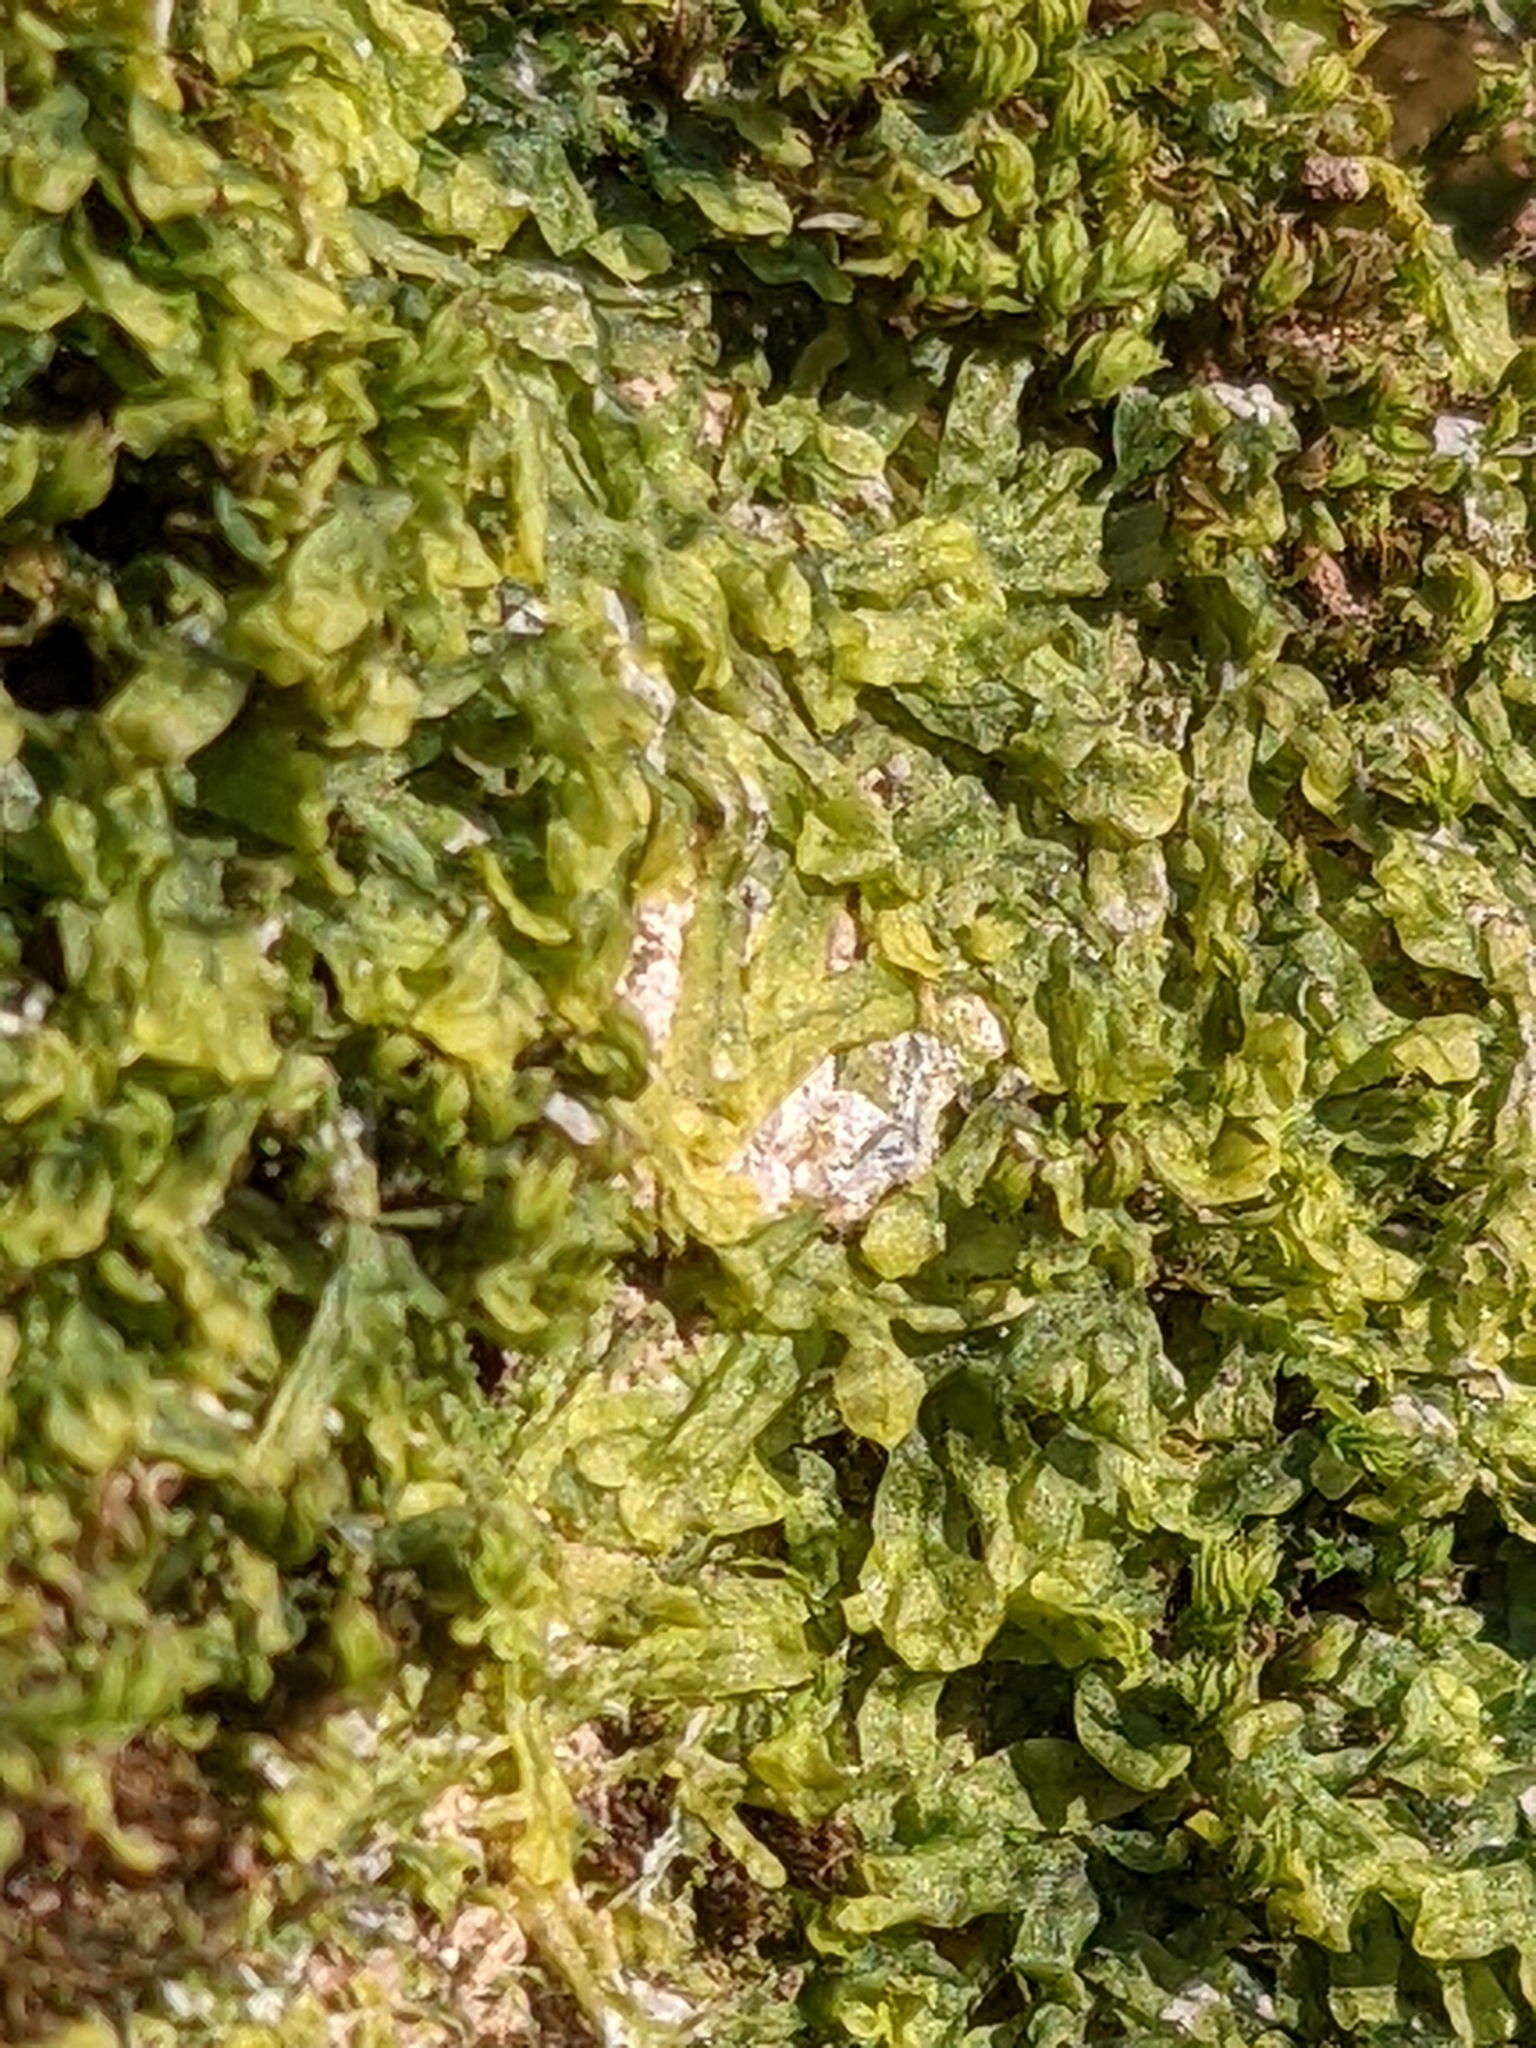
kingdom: Plantae
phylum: Marchantiophyta
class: Jungermanniopsida
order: Metzgeriales
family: Metzgeriaceae
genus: Metzgeria
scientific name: Metzgeria furcata
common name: Forked veilwort
